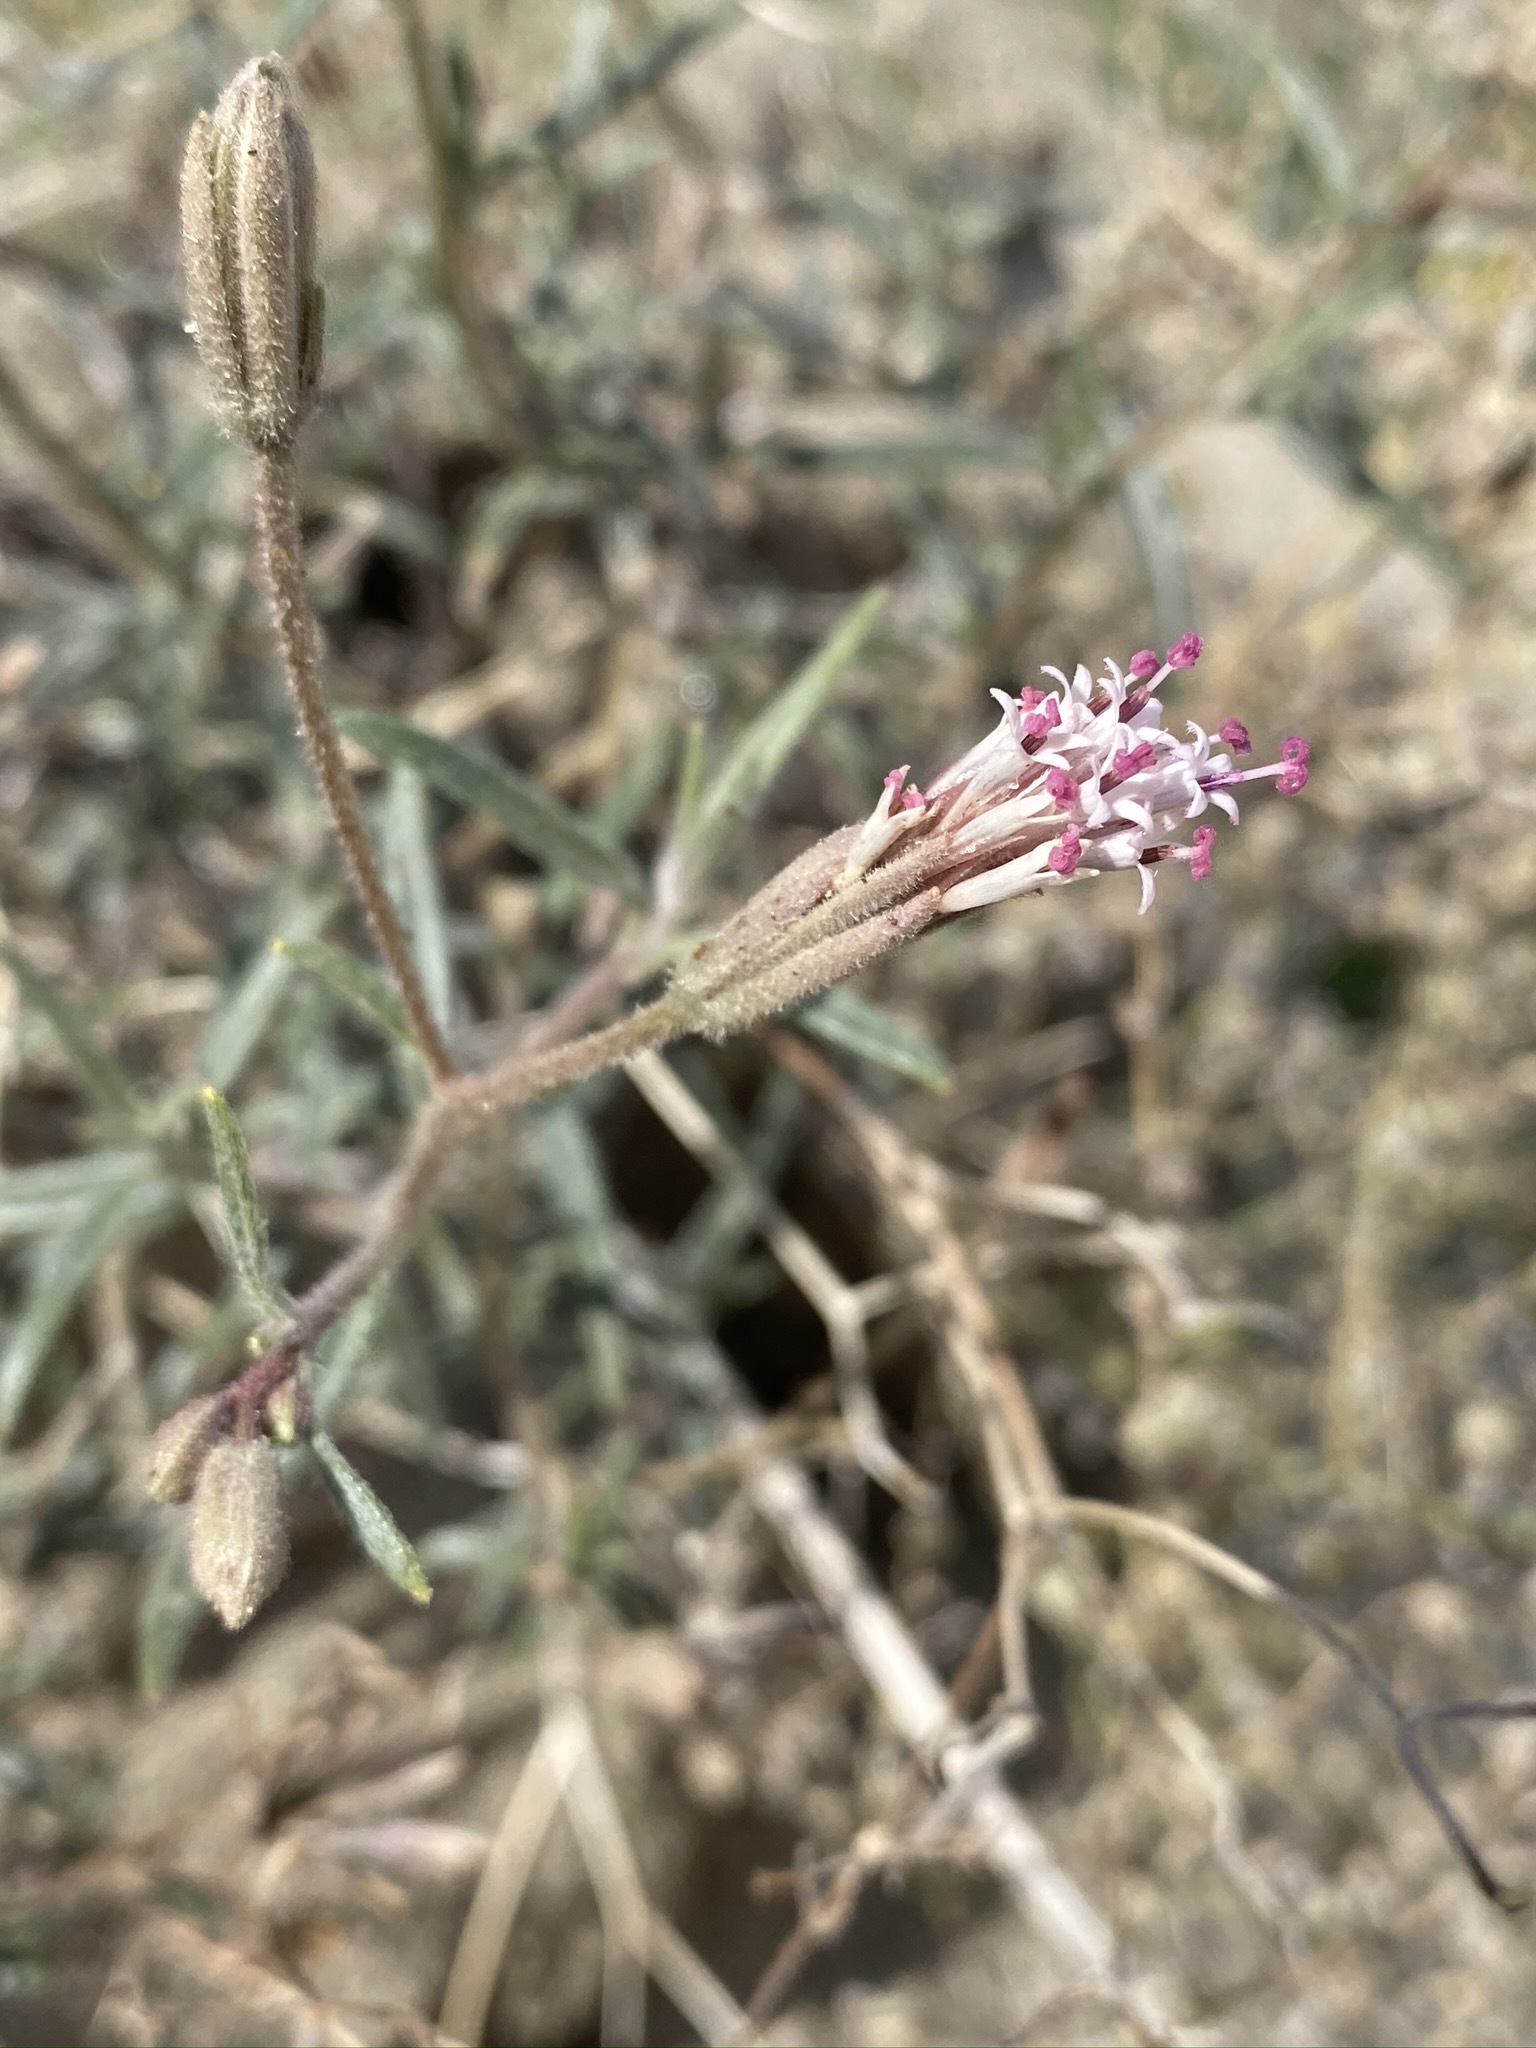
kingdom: Plantae
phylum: Tracheophyta
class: Magnoliopsida
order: Asterales
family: Asteraceae
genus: Palafoxia
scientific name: Palafoxia arida
